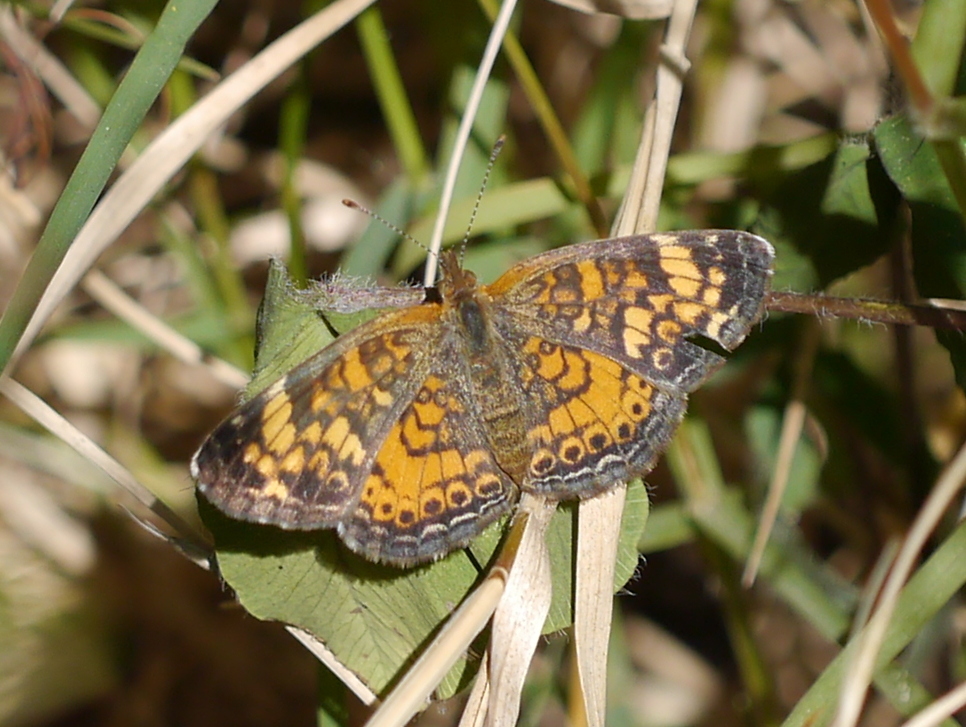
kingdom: Animalia
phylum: Arthropoda
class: Insecta
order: Lepidoptera
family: Nymphalidae
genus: Phyciodes
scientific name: Phyciodes tharos
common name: Pearl crescent
